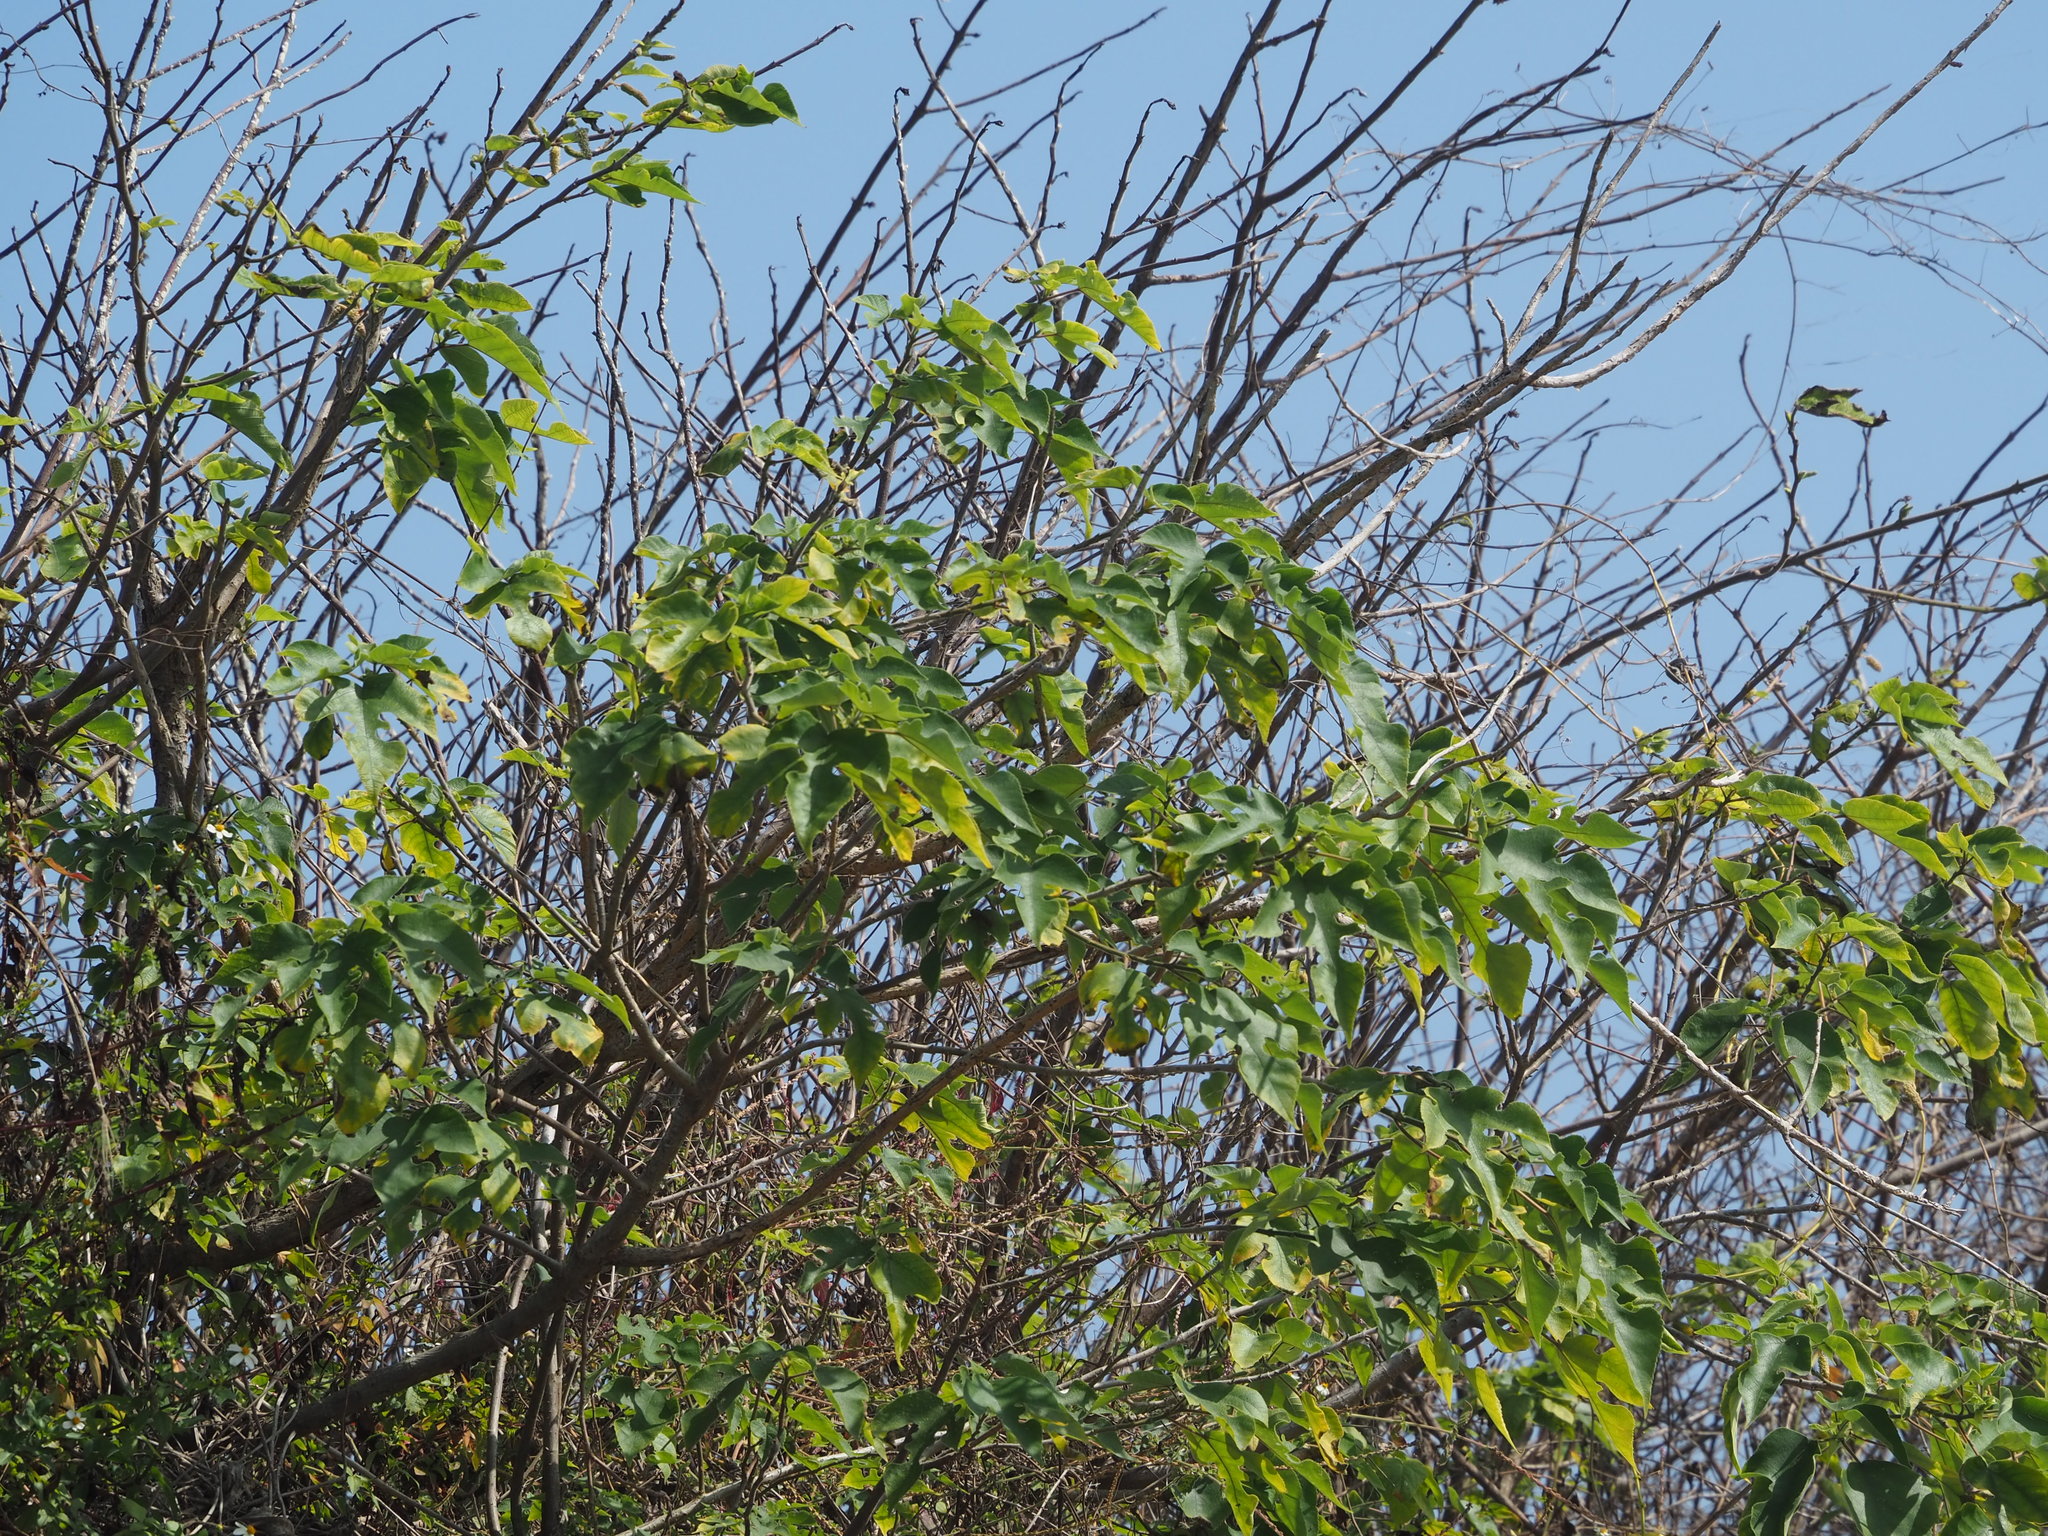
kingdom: Plantae
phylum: Tracheophyta
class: Magnoliopsida
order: Rosales
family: Moraceae
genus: Broussonetia
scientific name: Broussonetia papyrifera
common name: Paper mulberry
